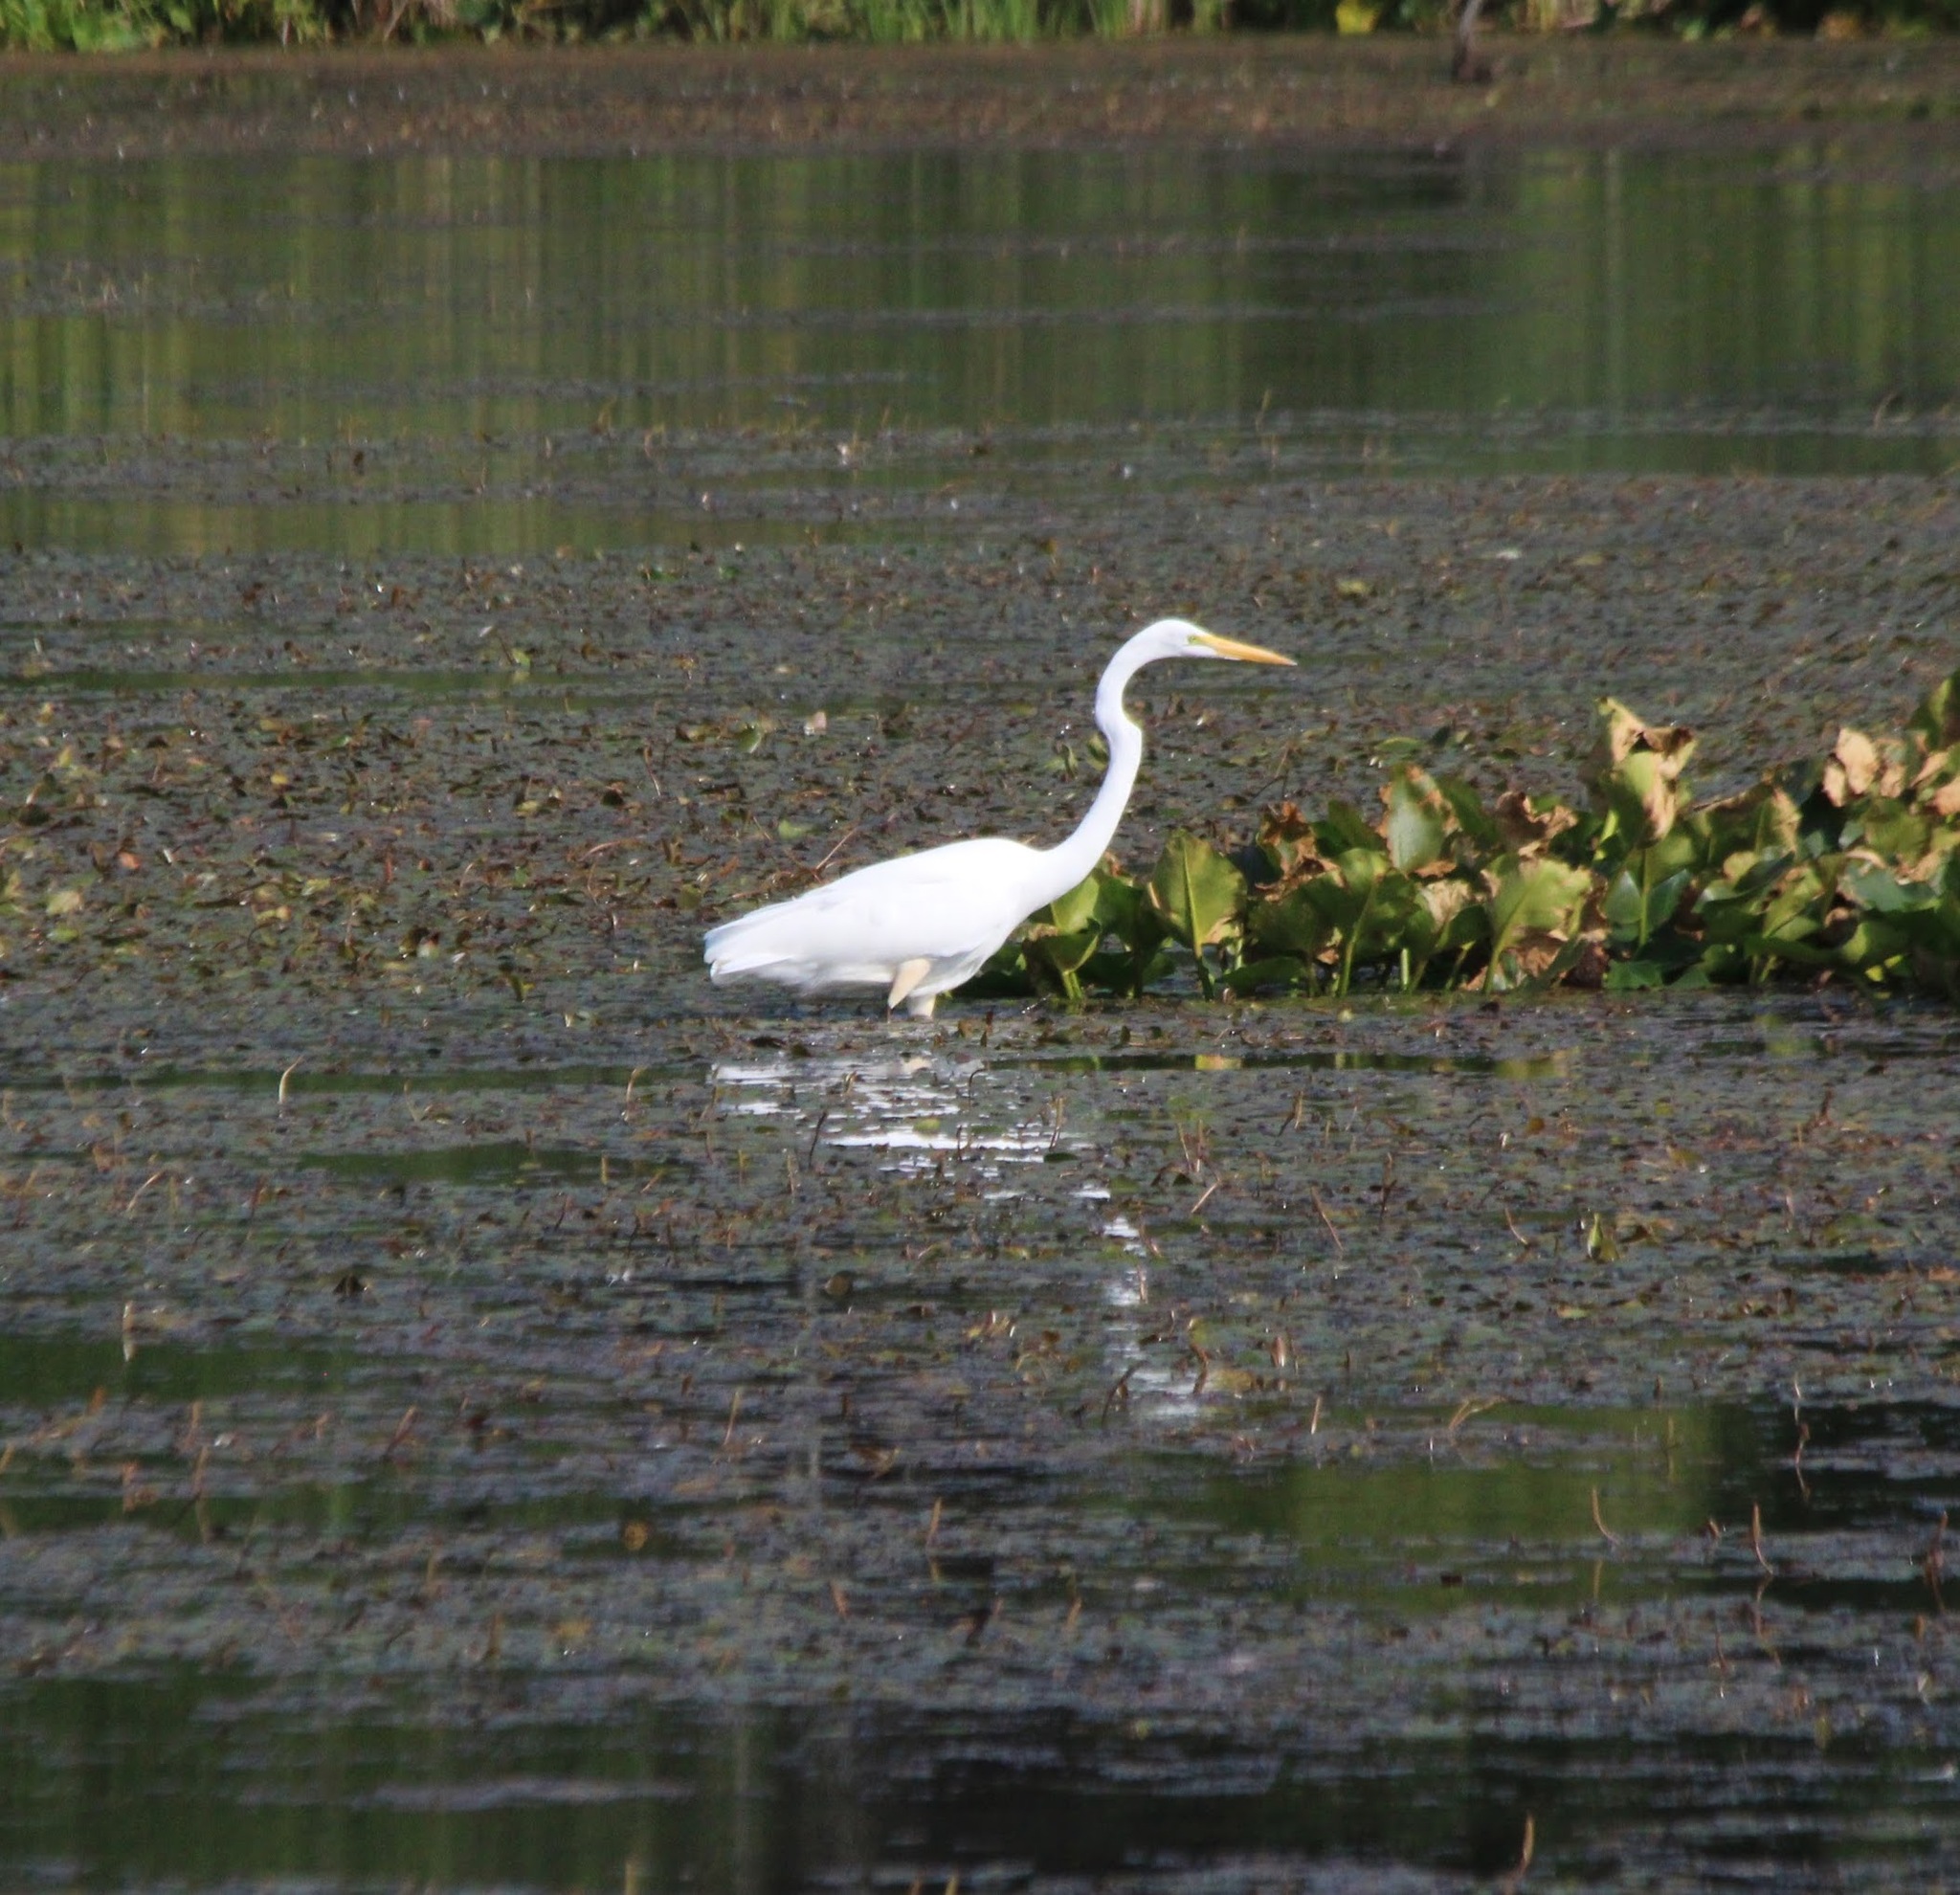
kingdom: Animalia
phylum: Chordata
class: Aves
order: Pelecaniformes
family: Ardeidae
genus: Ardea
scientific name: Ardea alba
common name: Great egret
